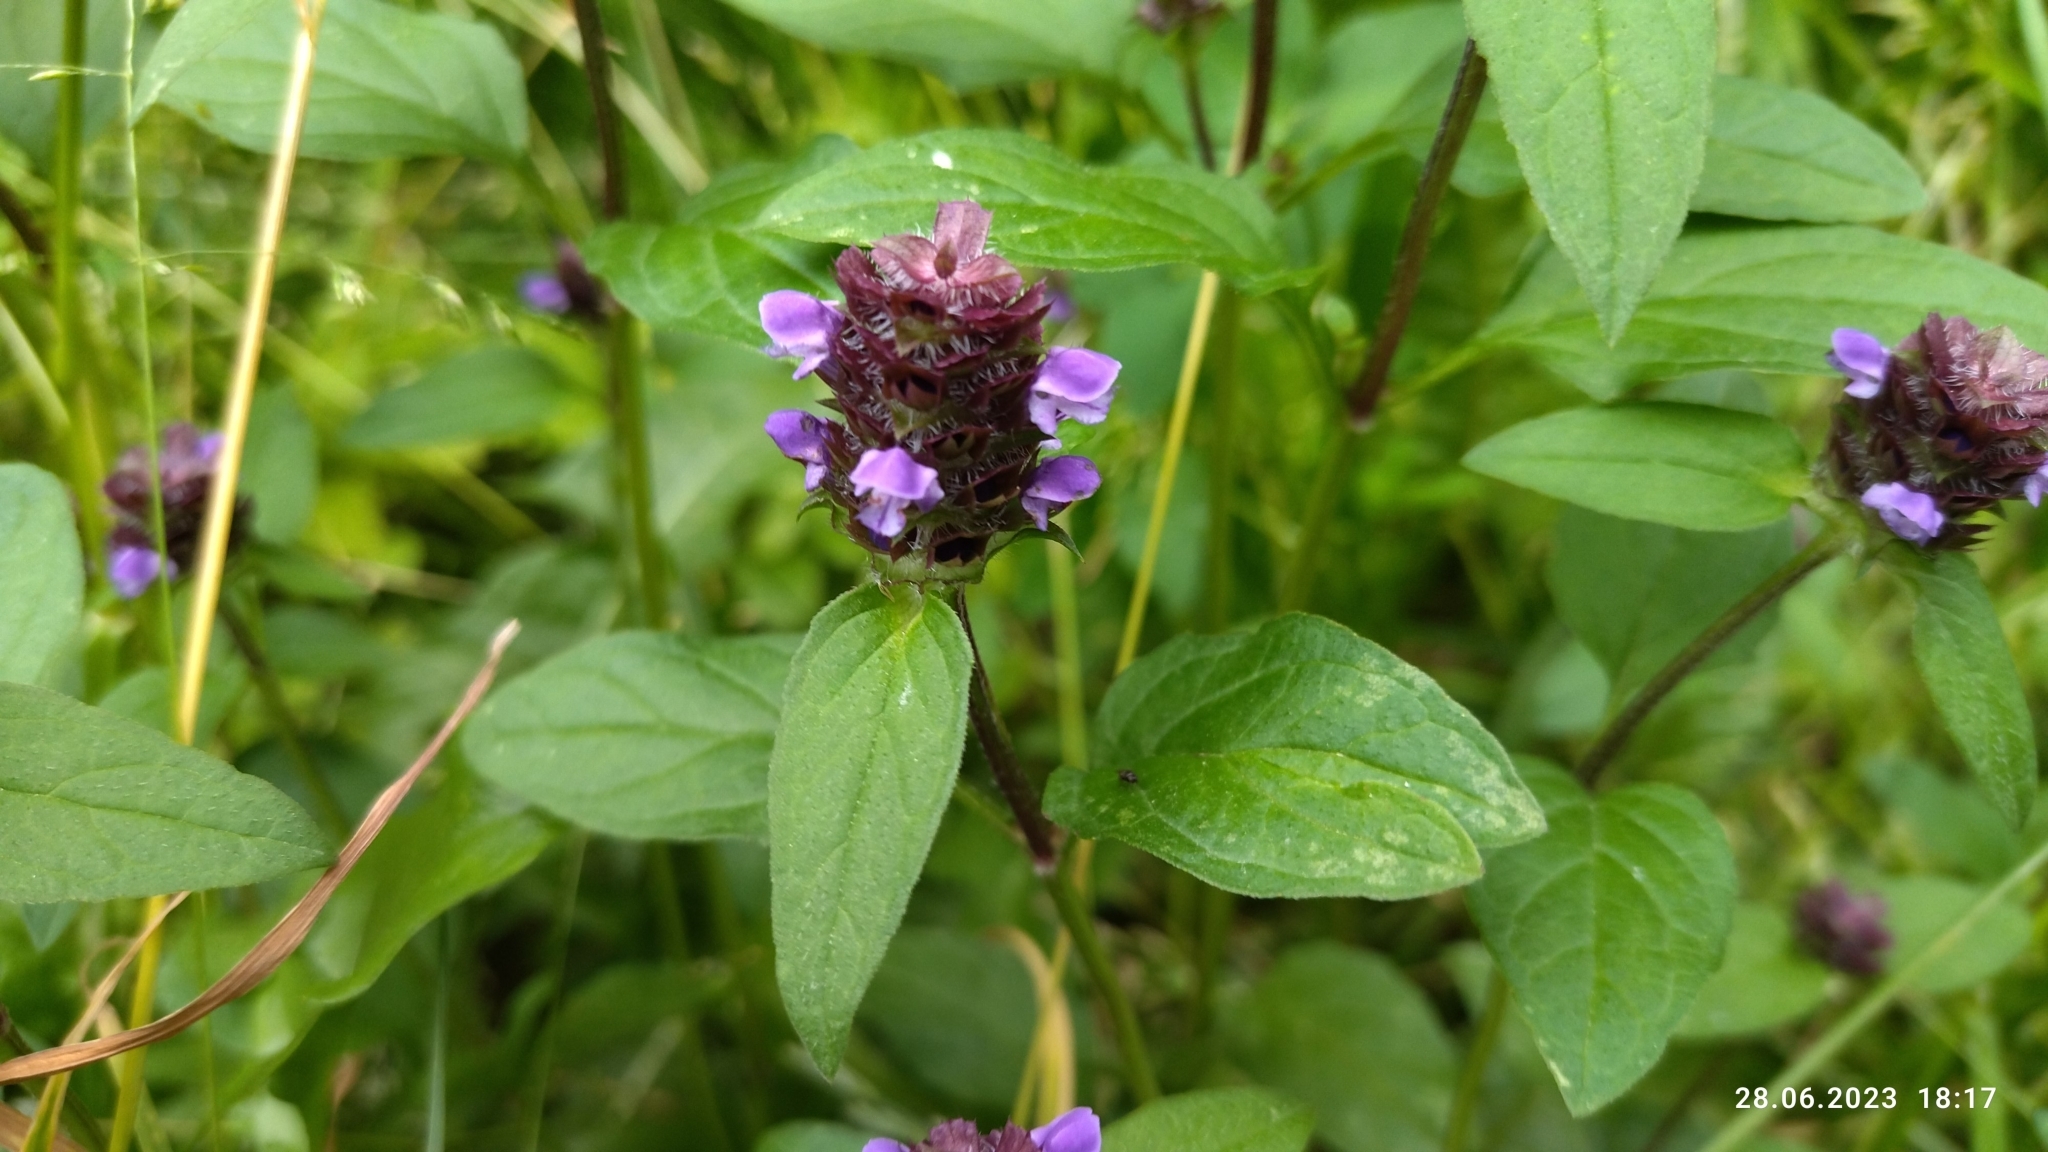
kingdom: Plantae
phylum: Tracheophyta
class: Magnoliopsida
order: Lamiales
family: Lamiaceae
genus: Prunella
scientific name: Prunella vulgaris
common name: Heal-all
